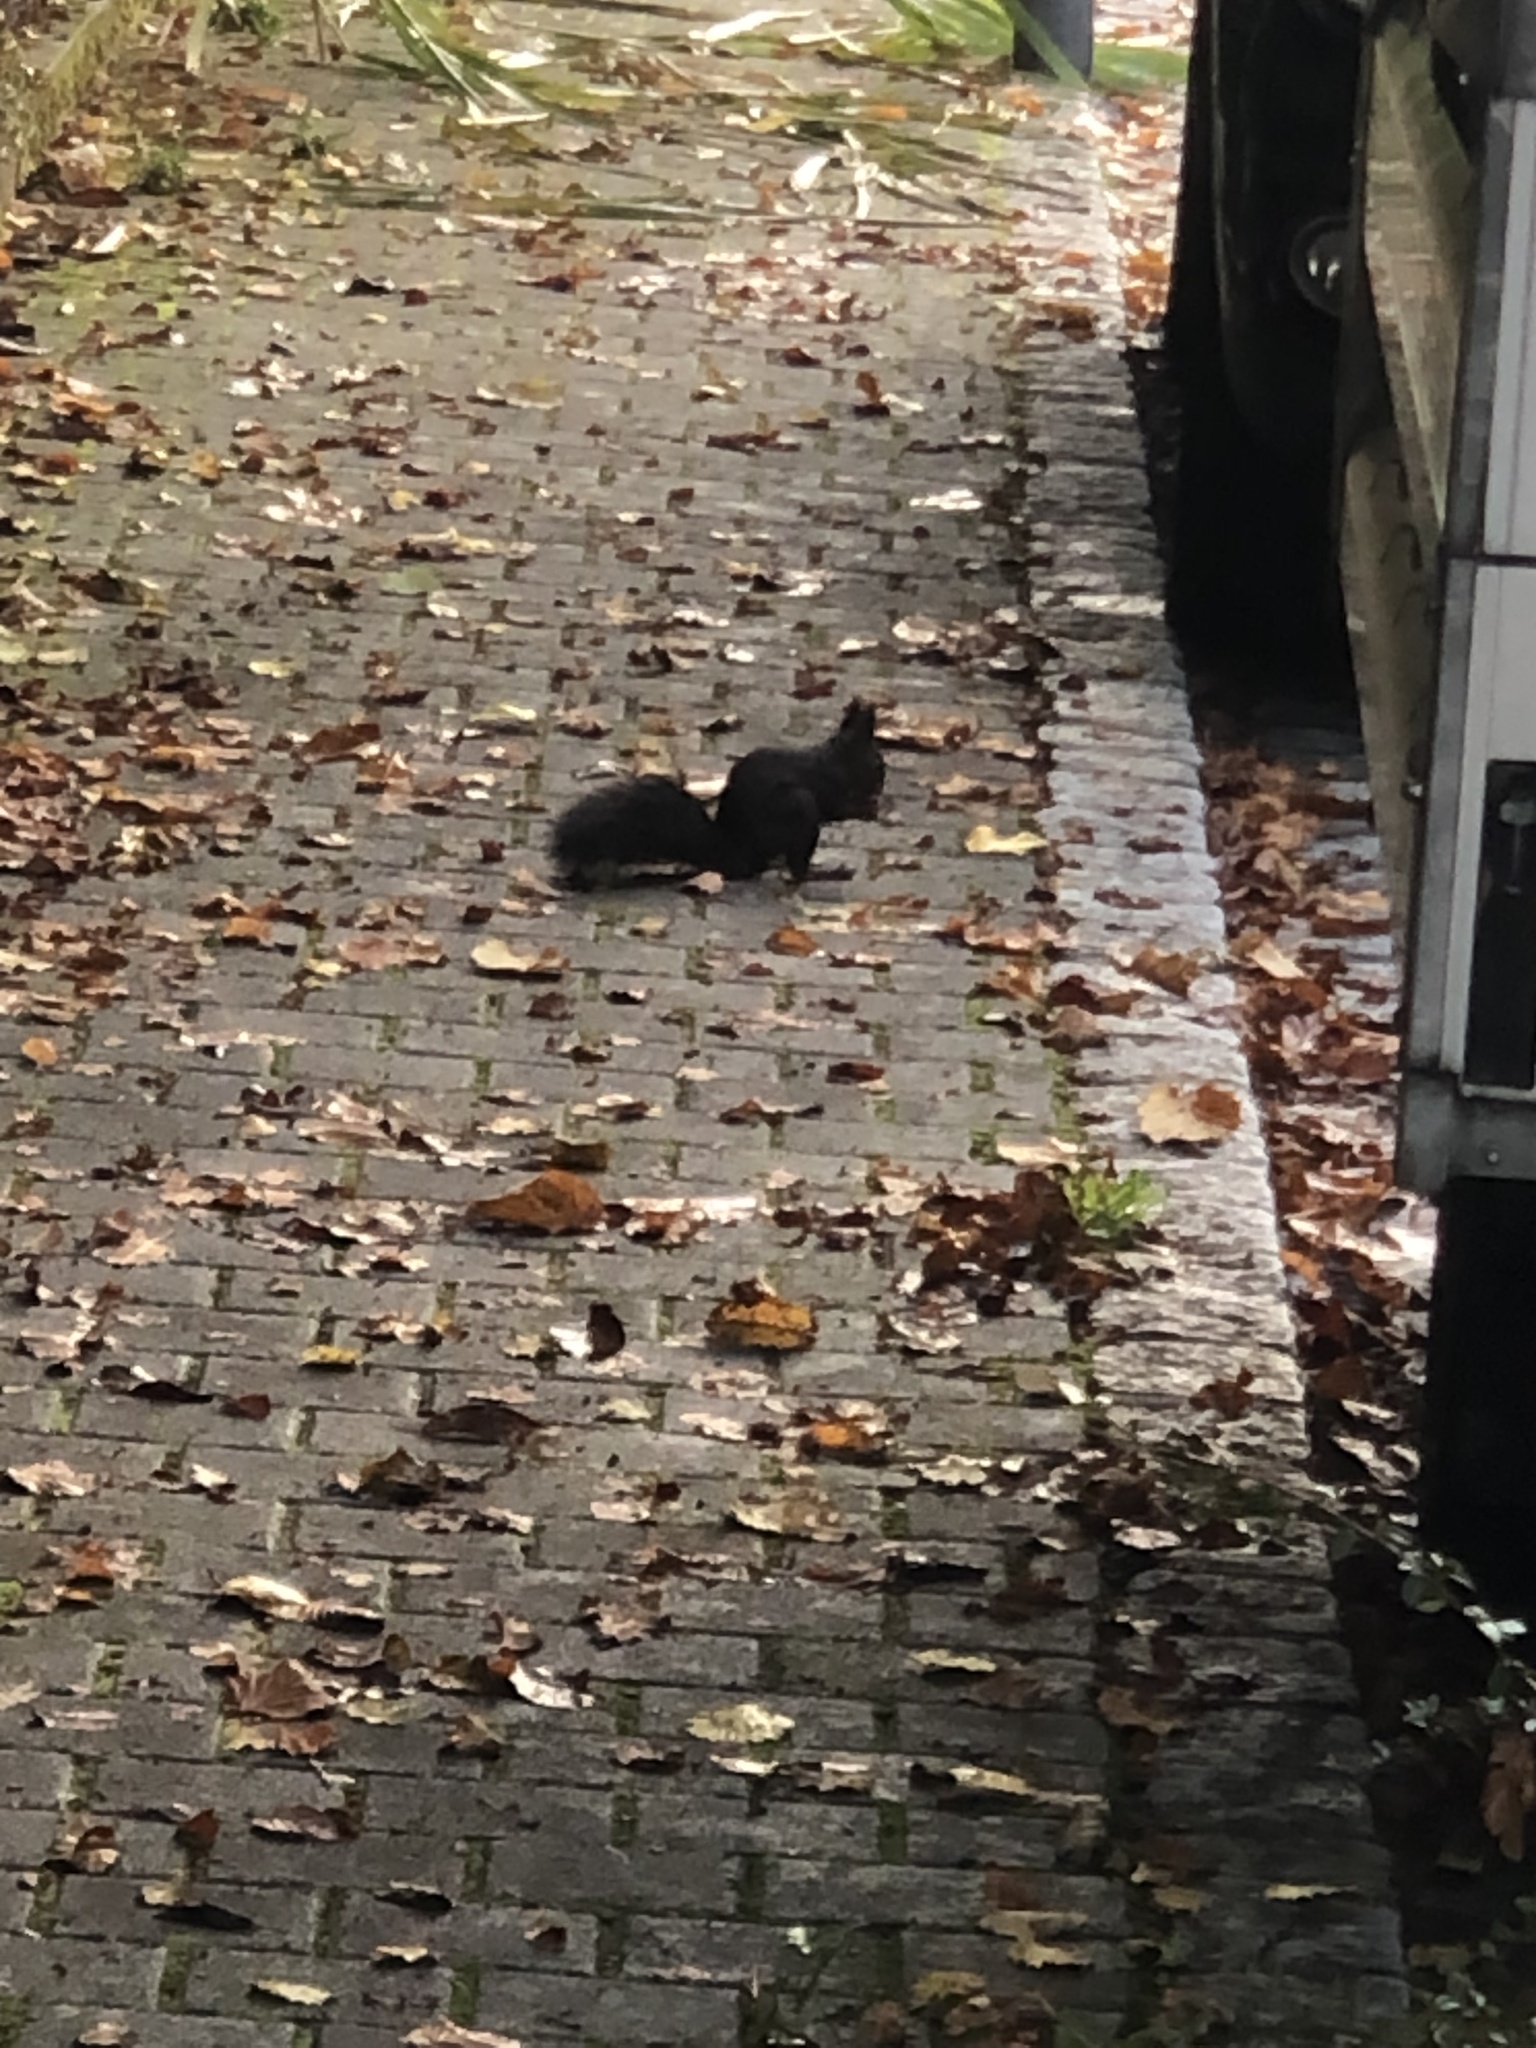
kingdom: Animalia
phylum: Chordata
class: Mammalia
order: Rodentia
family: Sciuridae
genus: Sciurus
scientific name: Sciurus vulgaris
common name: Eurasian red squirrel
